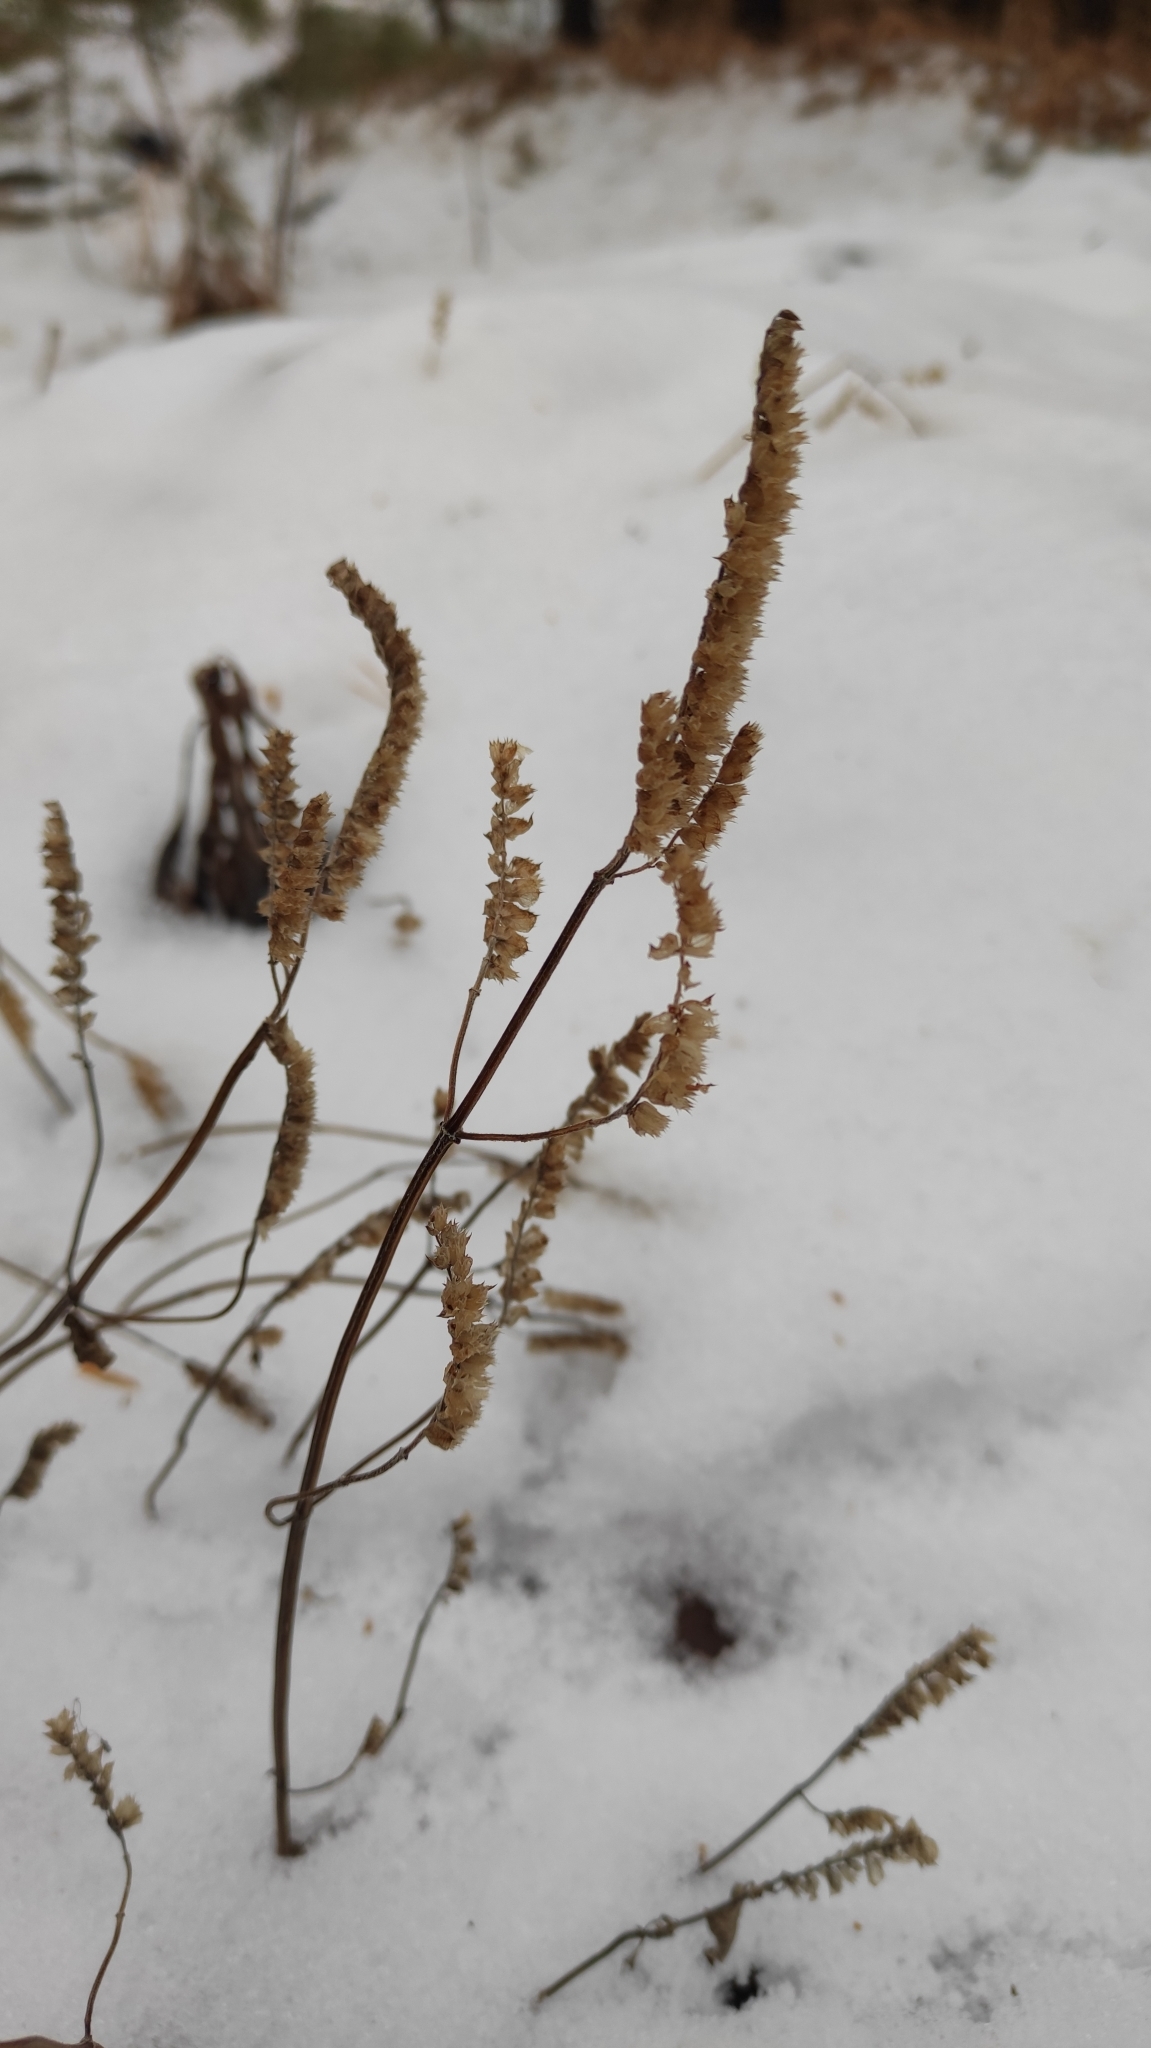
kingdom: Plantae
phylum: Tracheophyta
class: Magnoliopsida
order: Lamiales
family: Lamiaceae
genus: Elsholtzia
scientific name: Elsholtzia ciliata
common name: Ciliate elsholtzia
